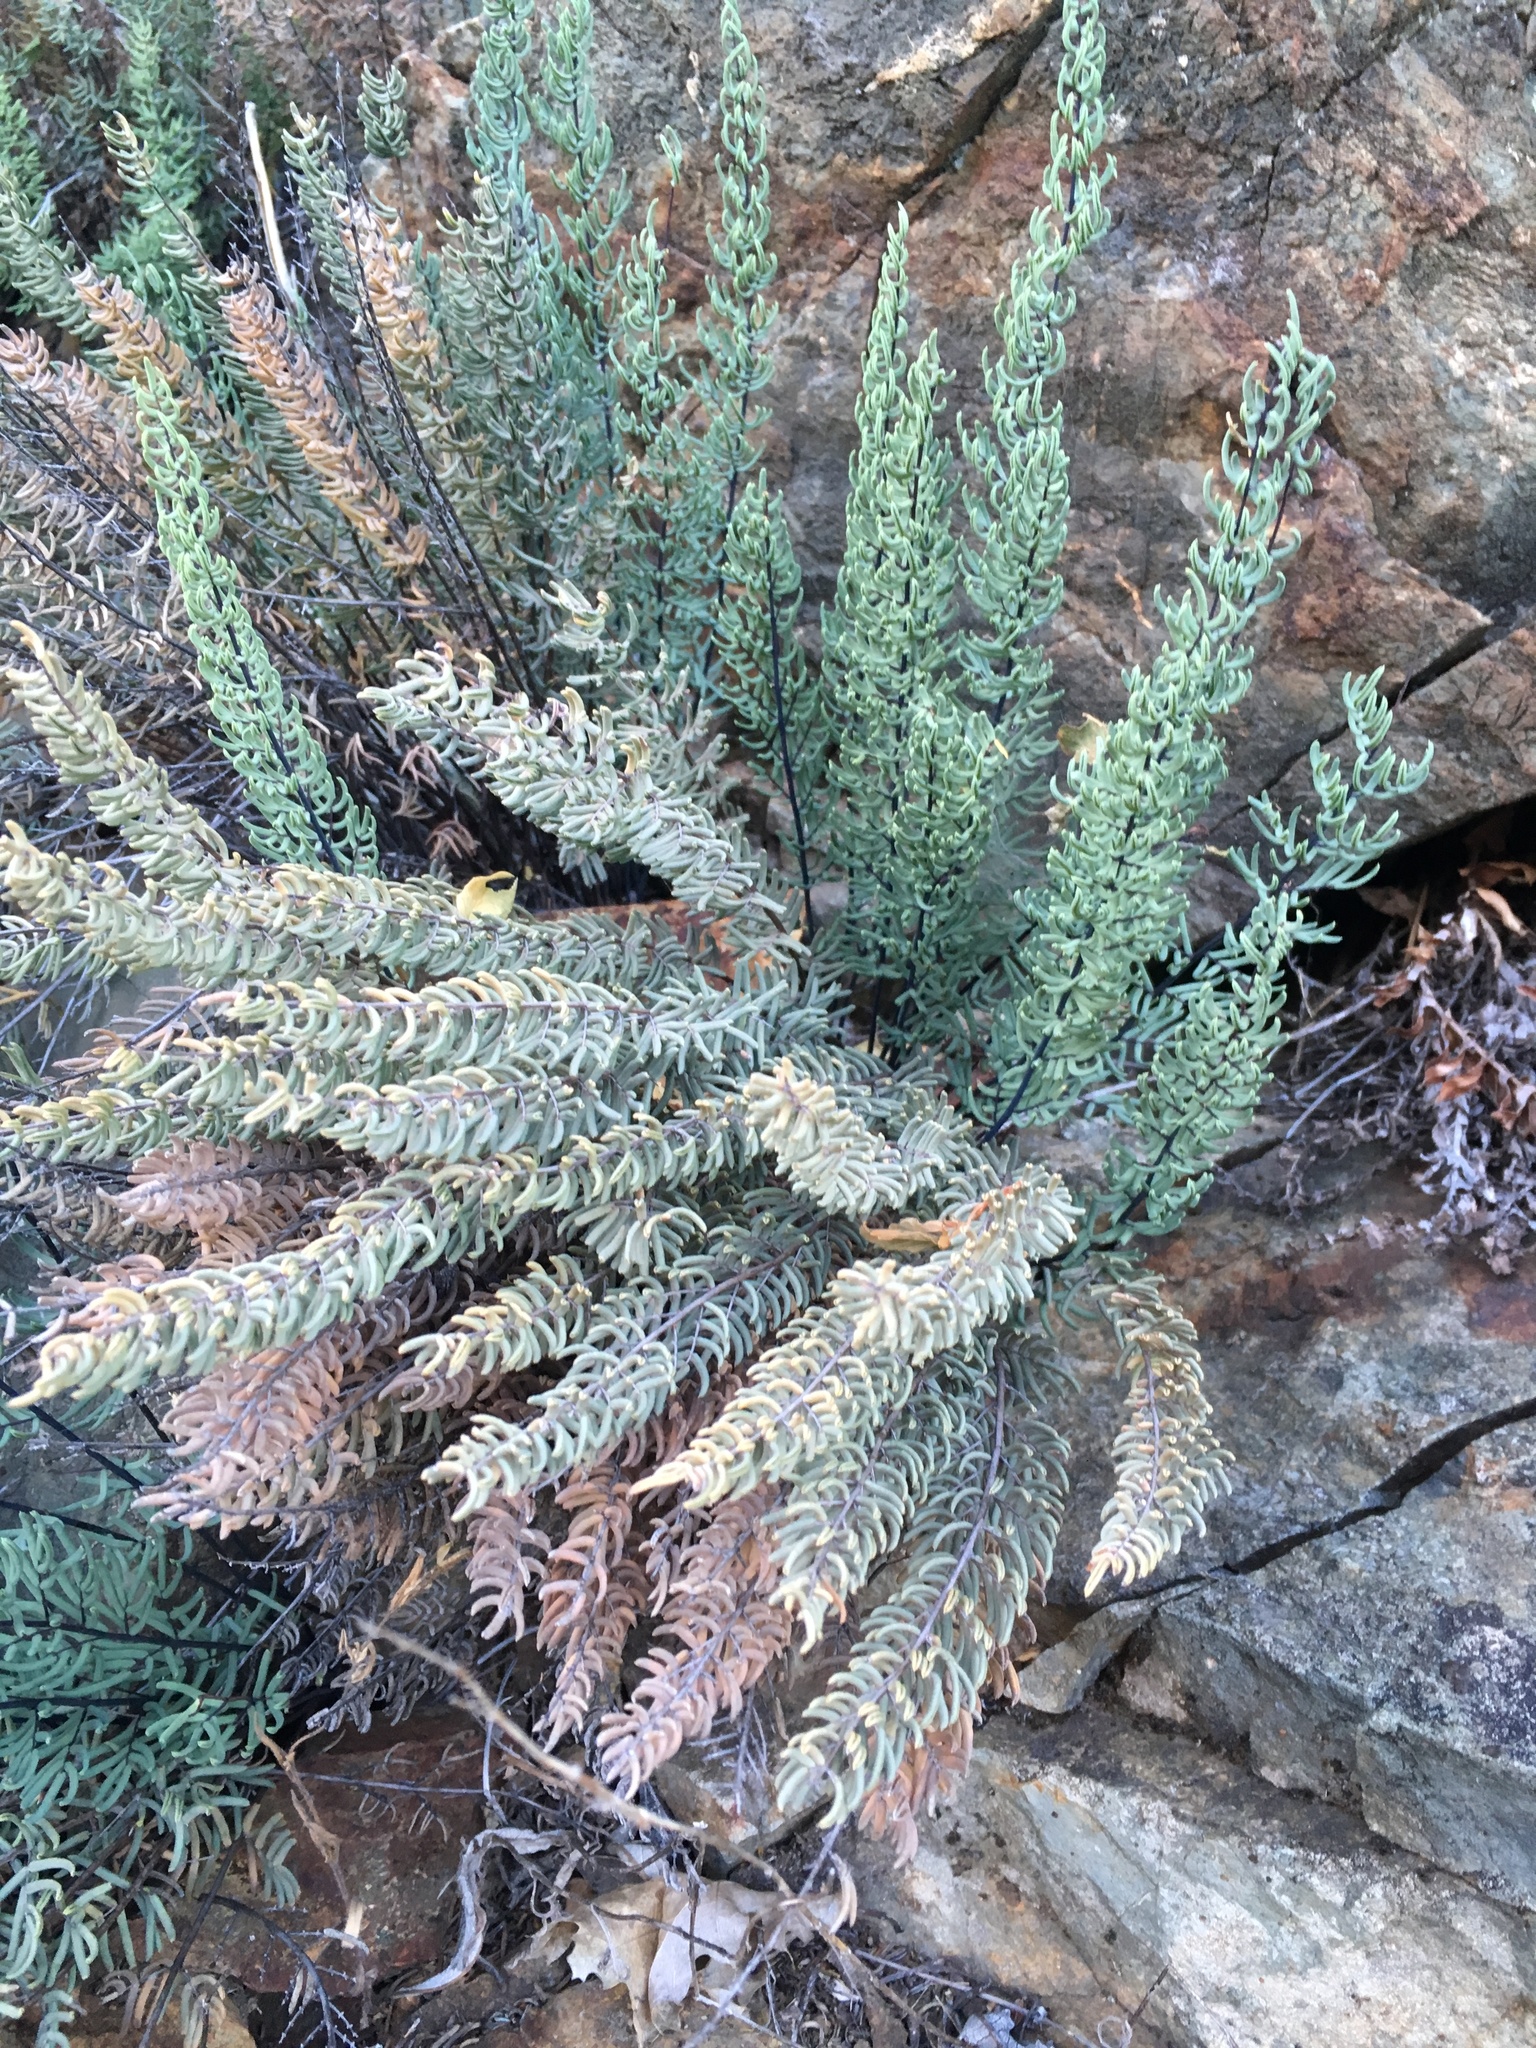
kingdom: Plantae
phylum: Tracheophyta
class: Polypodiopsida
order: Polypodiales
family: Pteridaceae
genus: Pellaea
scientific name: Pellaea brachyptera
